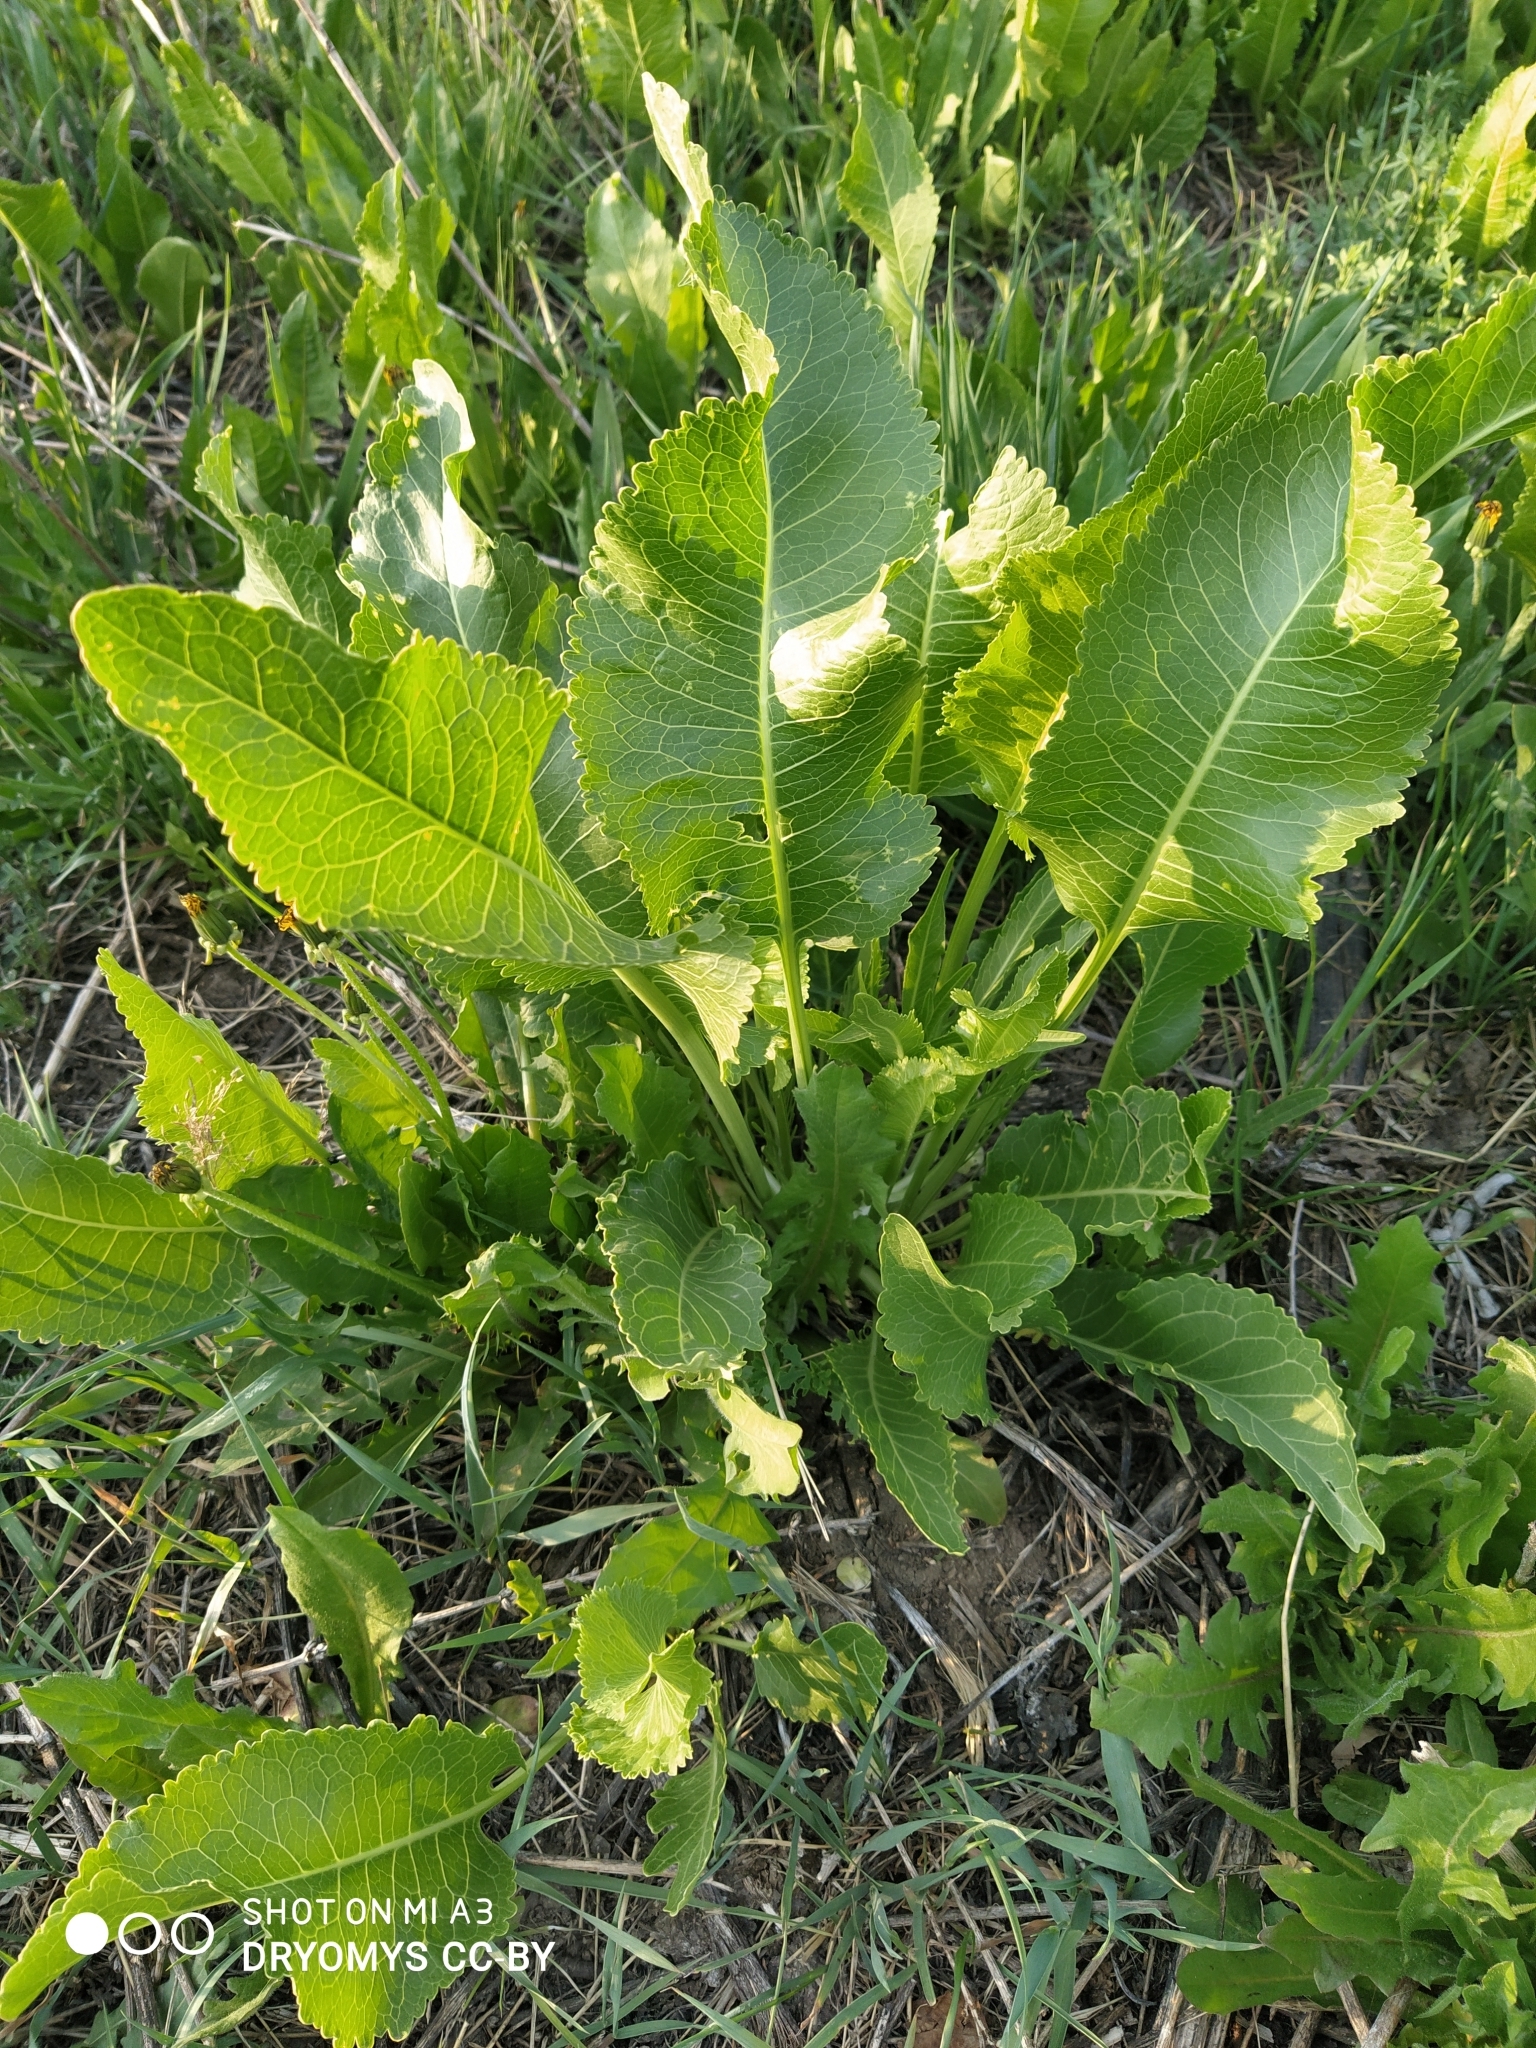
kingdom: Plantae
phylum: Tracheophyta
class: Magnoliopsida
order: Brassicales
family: Brassicaceae
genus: Armoracia
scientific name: Armoracia rusticana
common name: Horseradish
